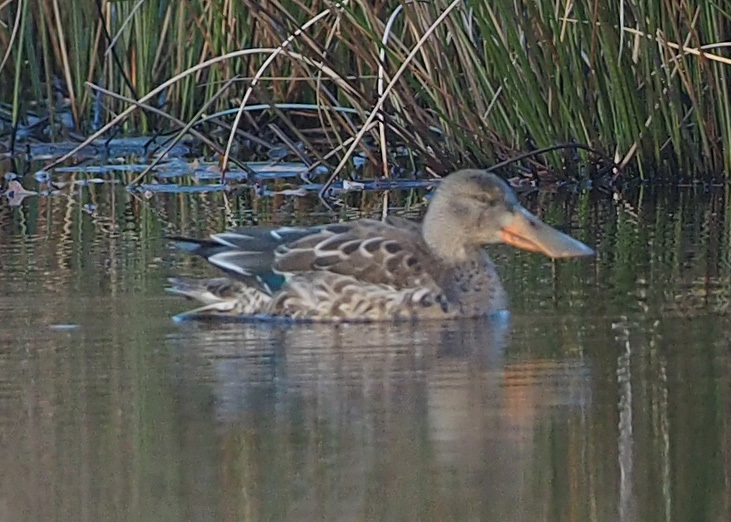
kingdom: Animalia
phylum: Chordata
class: Aves
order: Anseriformes
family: Anatidae
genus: Spatula
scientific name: Spatula clypeata
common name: Northern shoveler
